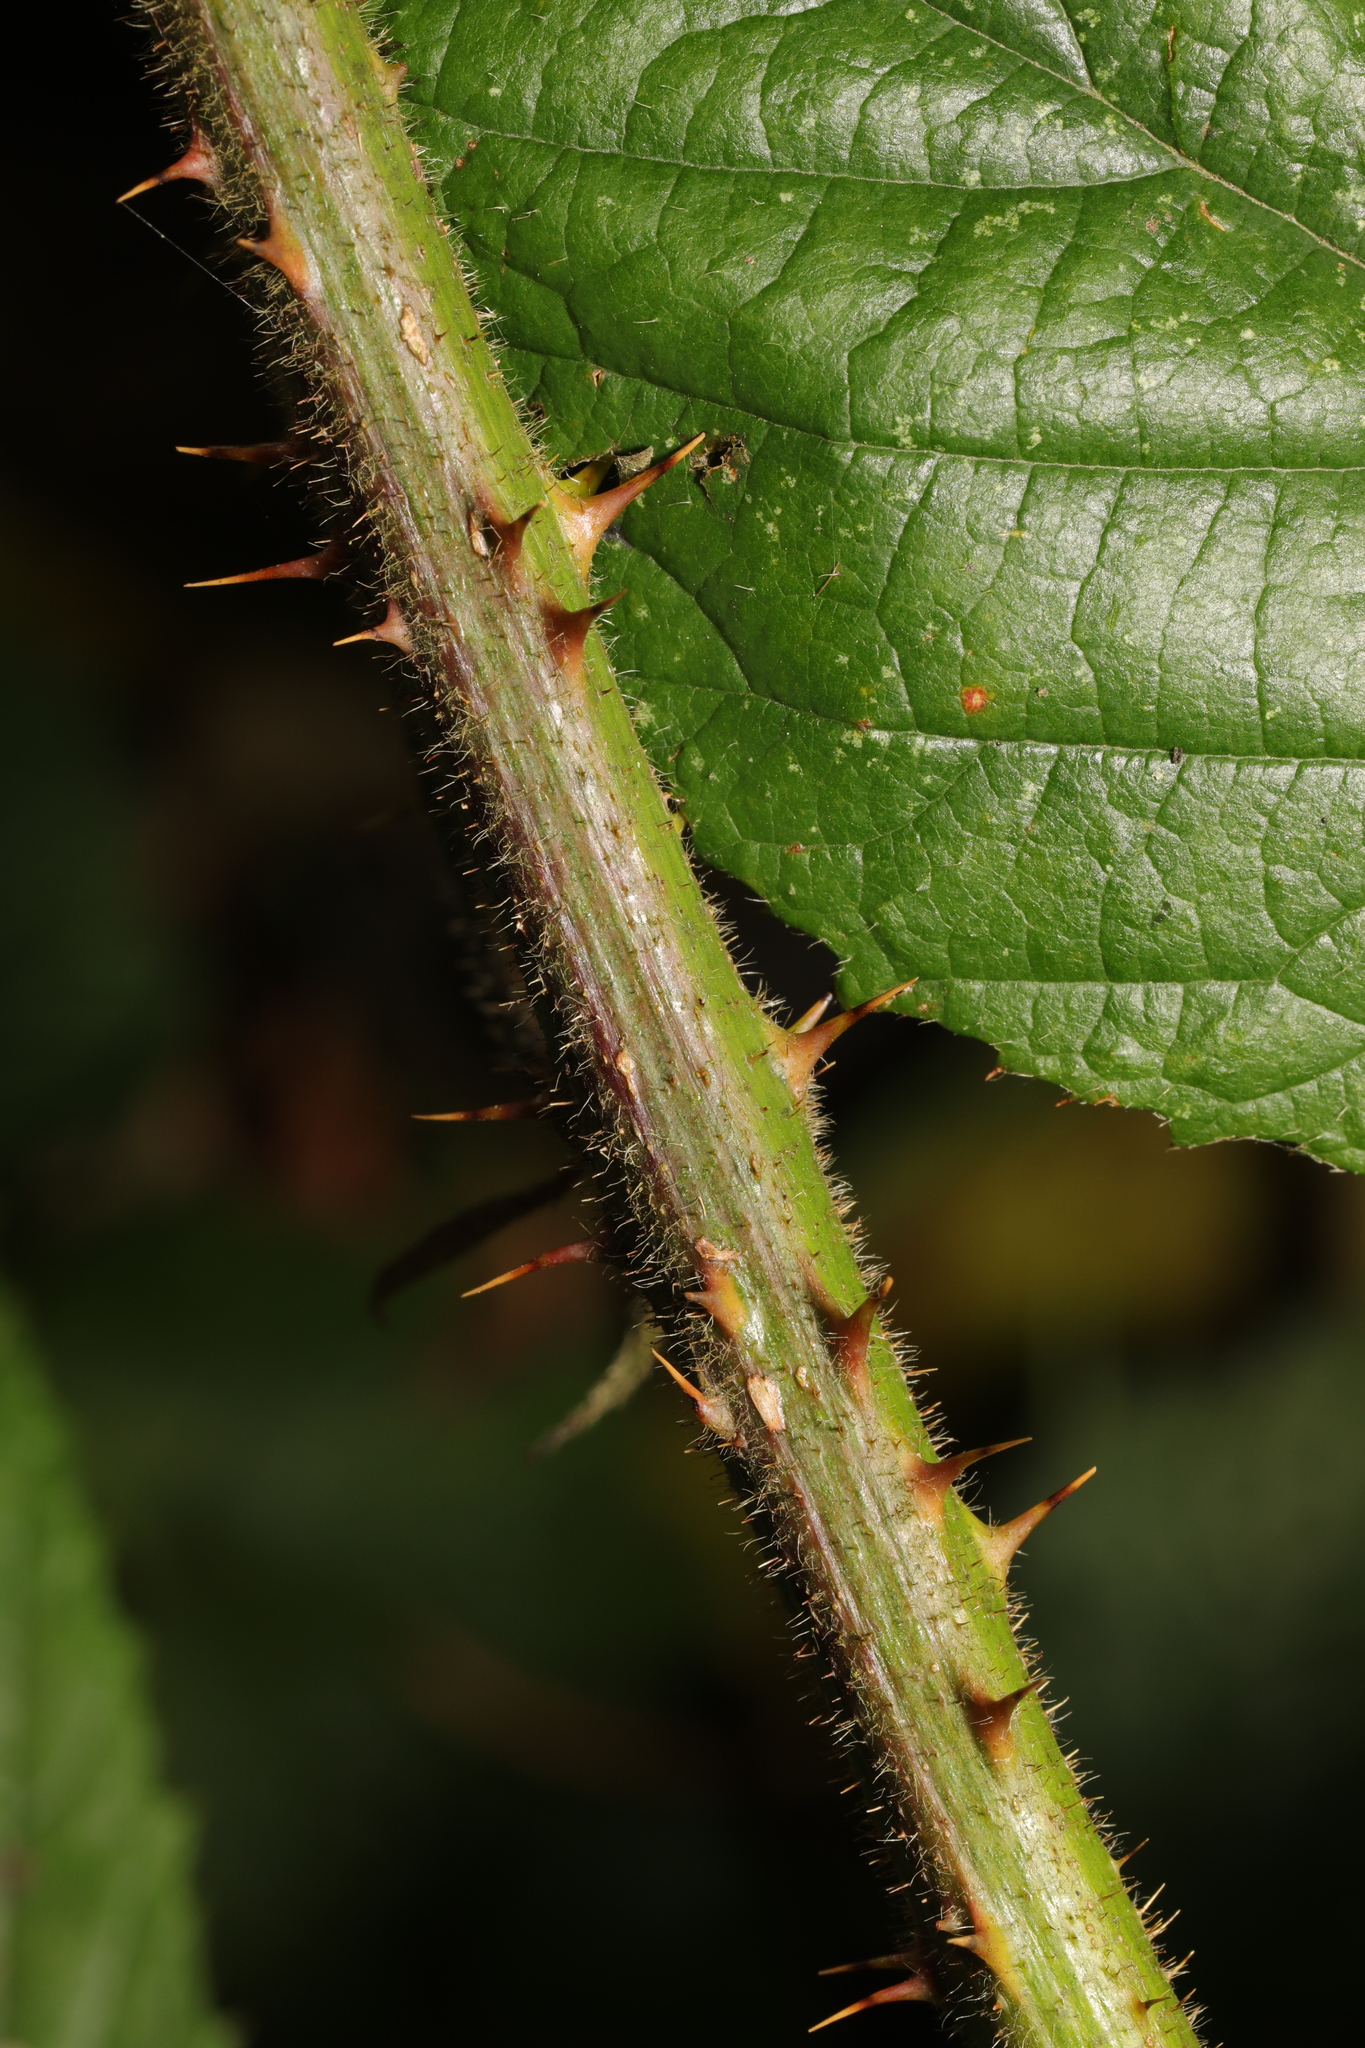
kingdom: Plantae
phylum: Tracheophyta
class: Magnoliopsida
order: Rosales
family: Rosaceae
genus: Rubus
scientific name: Rubus dasyphyllus
